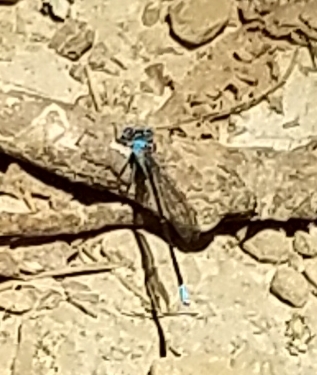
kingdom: Animalia
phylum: Arthropoda
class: Insecta
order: Odonata
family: Coenagrionidae
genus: Argia
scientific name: Argia apicalis
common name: Blue-fronted dancer
